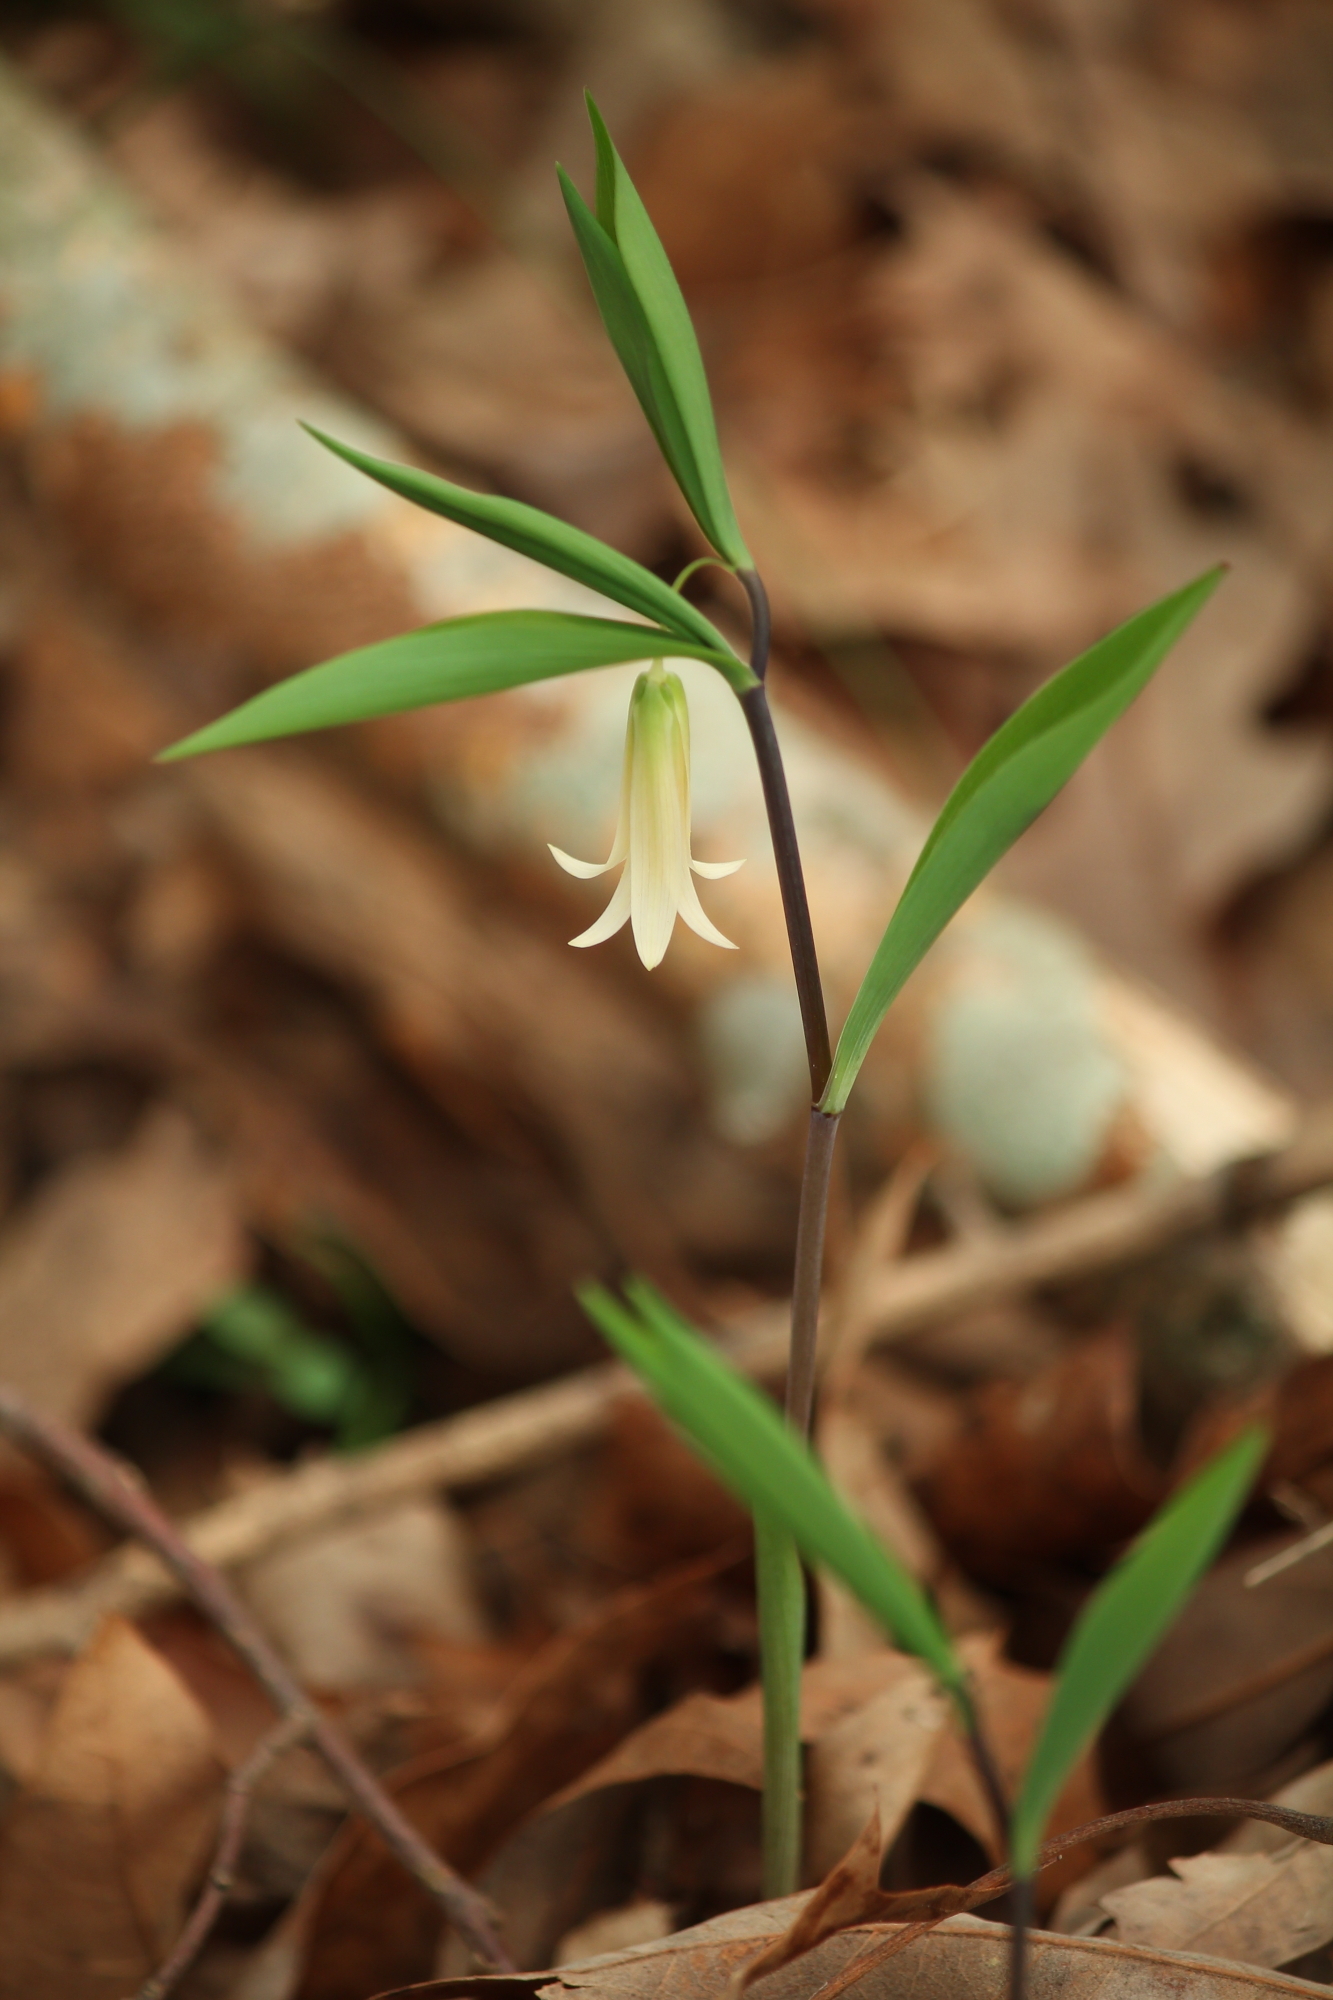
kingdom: Plantae
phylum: Tracheophyta
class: Liliopsida
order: Liliales
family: Colchicaceae
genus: Uvularia
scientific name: Uvularia sessilifolia
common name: Straw-lily
